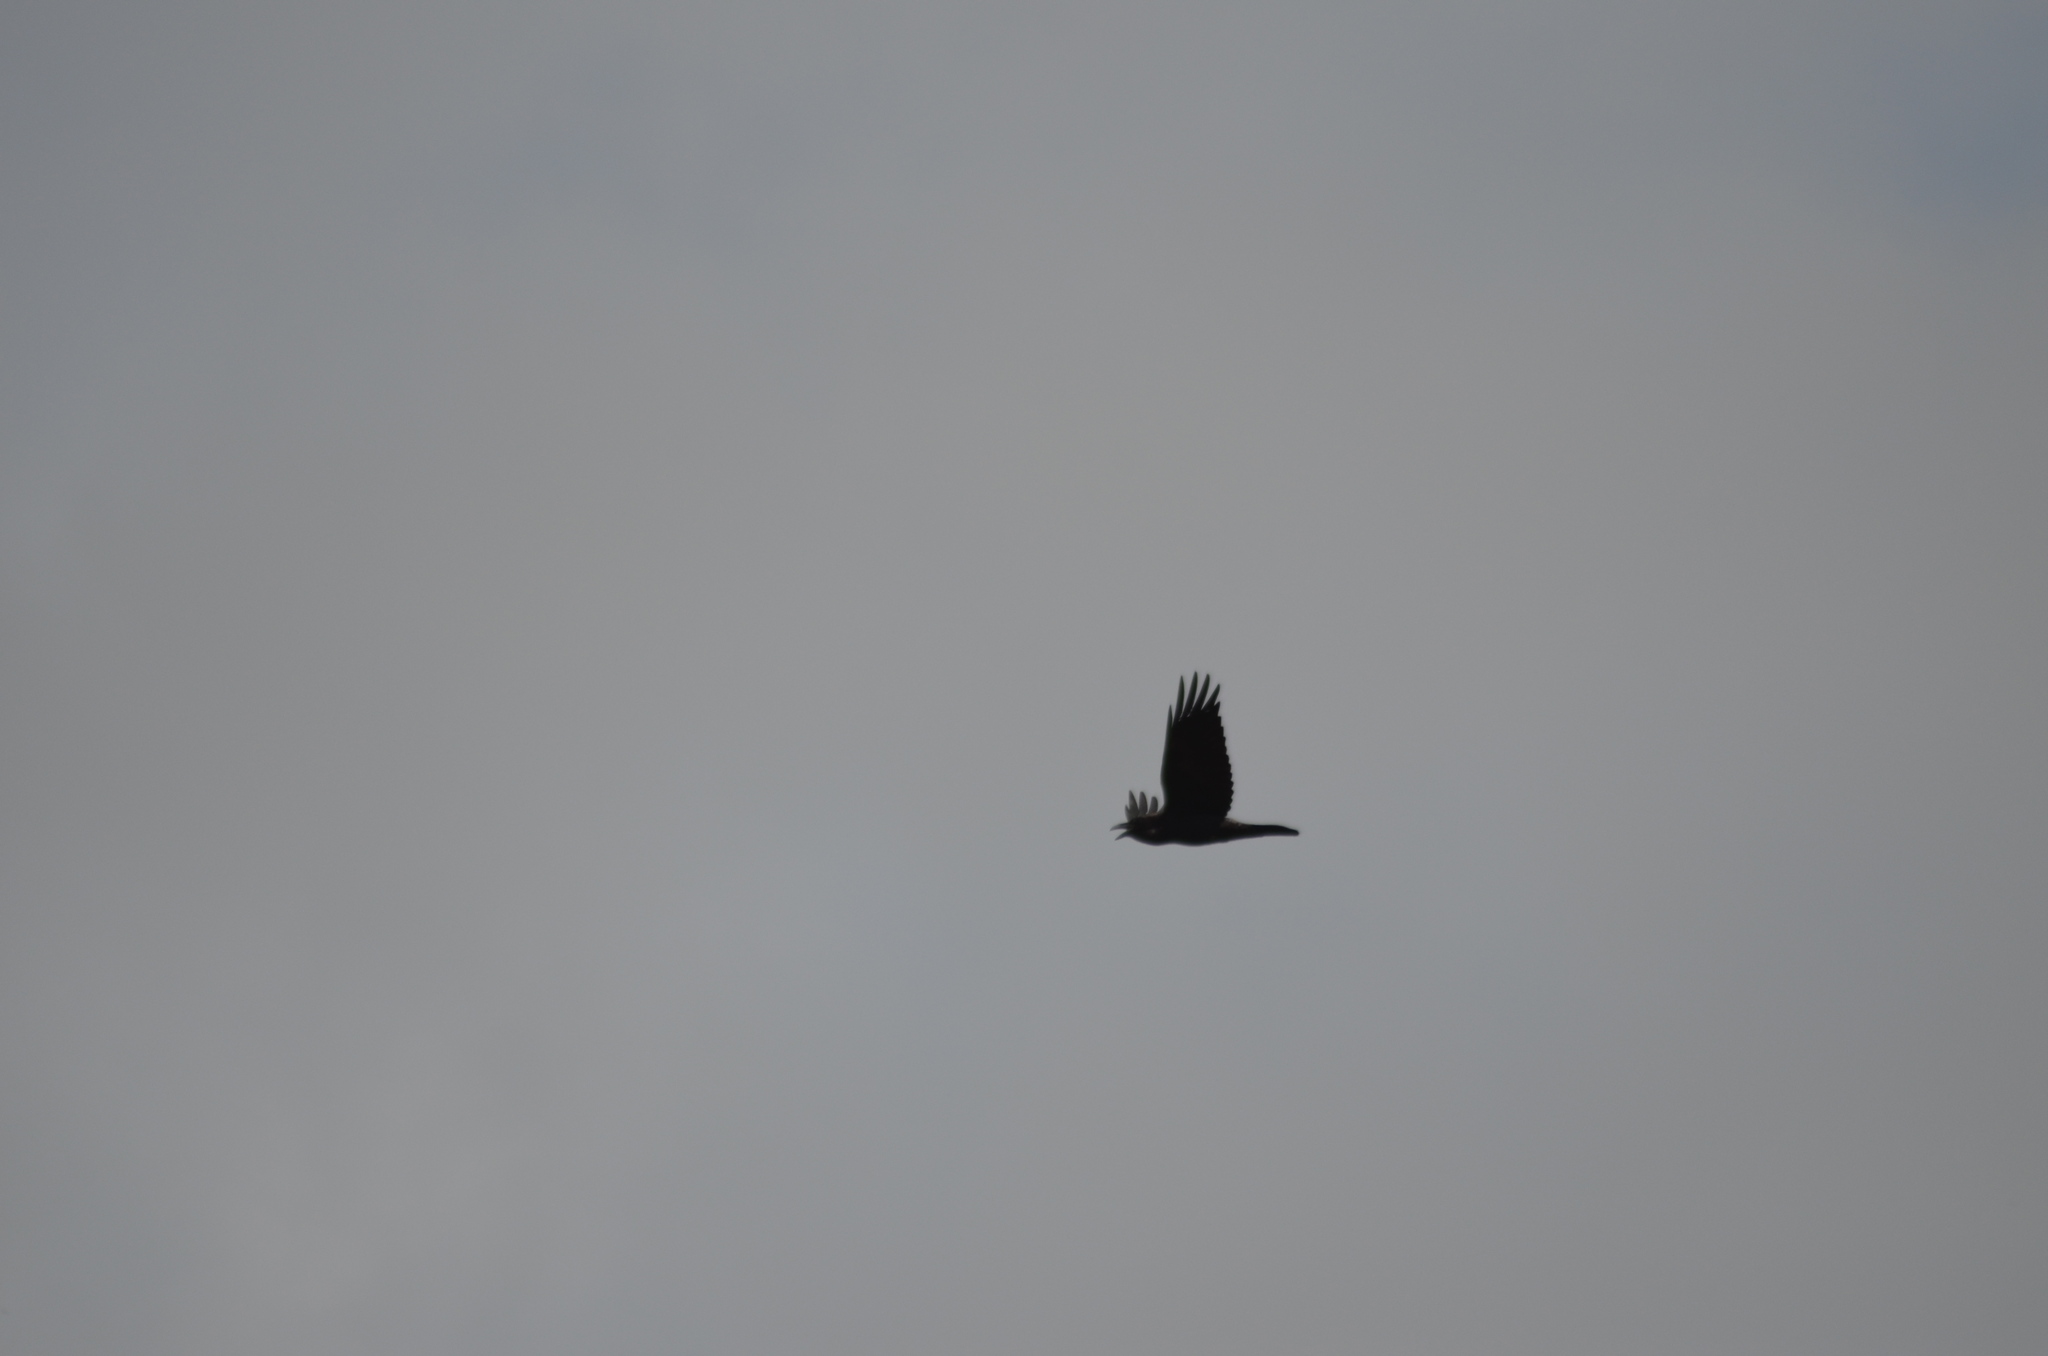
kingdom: Animalia
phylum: Chordata
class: Aves
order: Passeriformes
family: Corvidae
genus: Corvus
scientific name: Corvus corax
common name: Common raven
